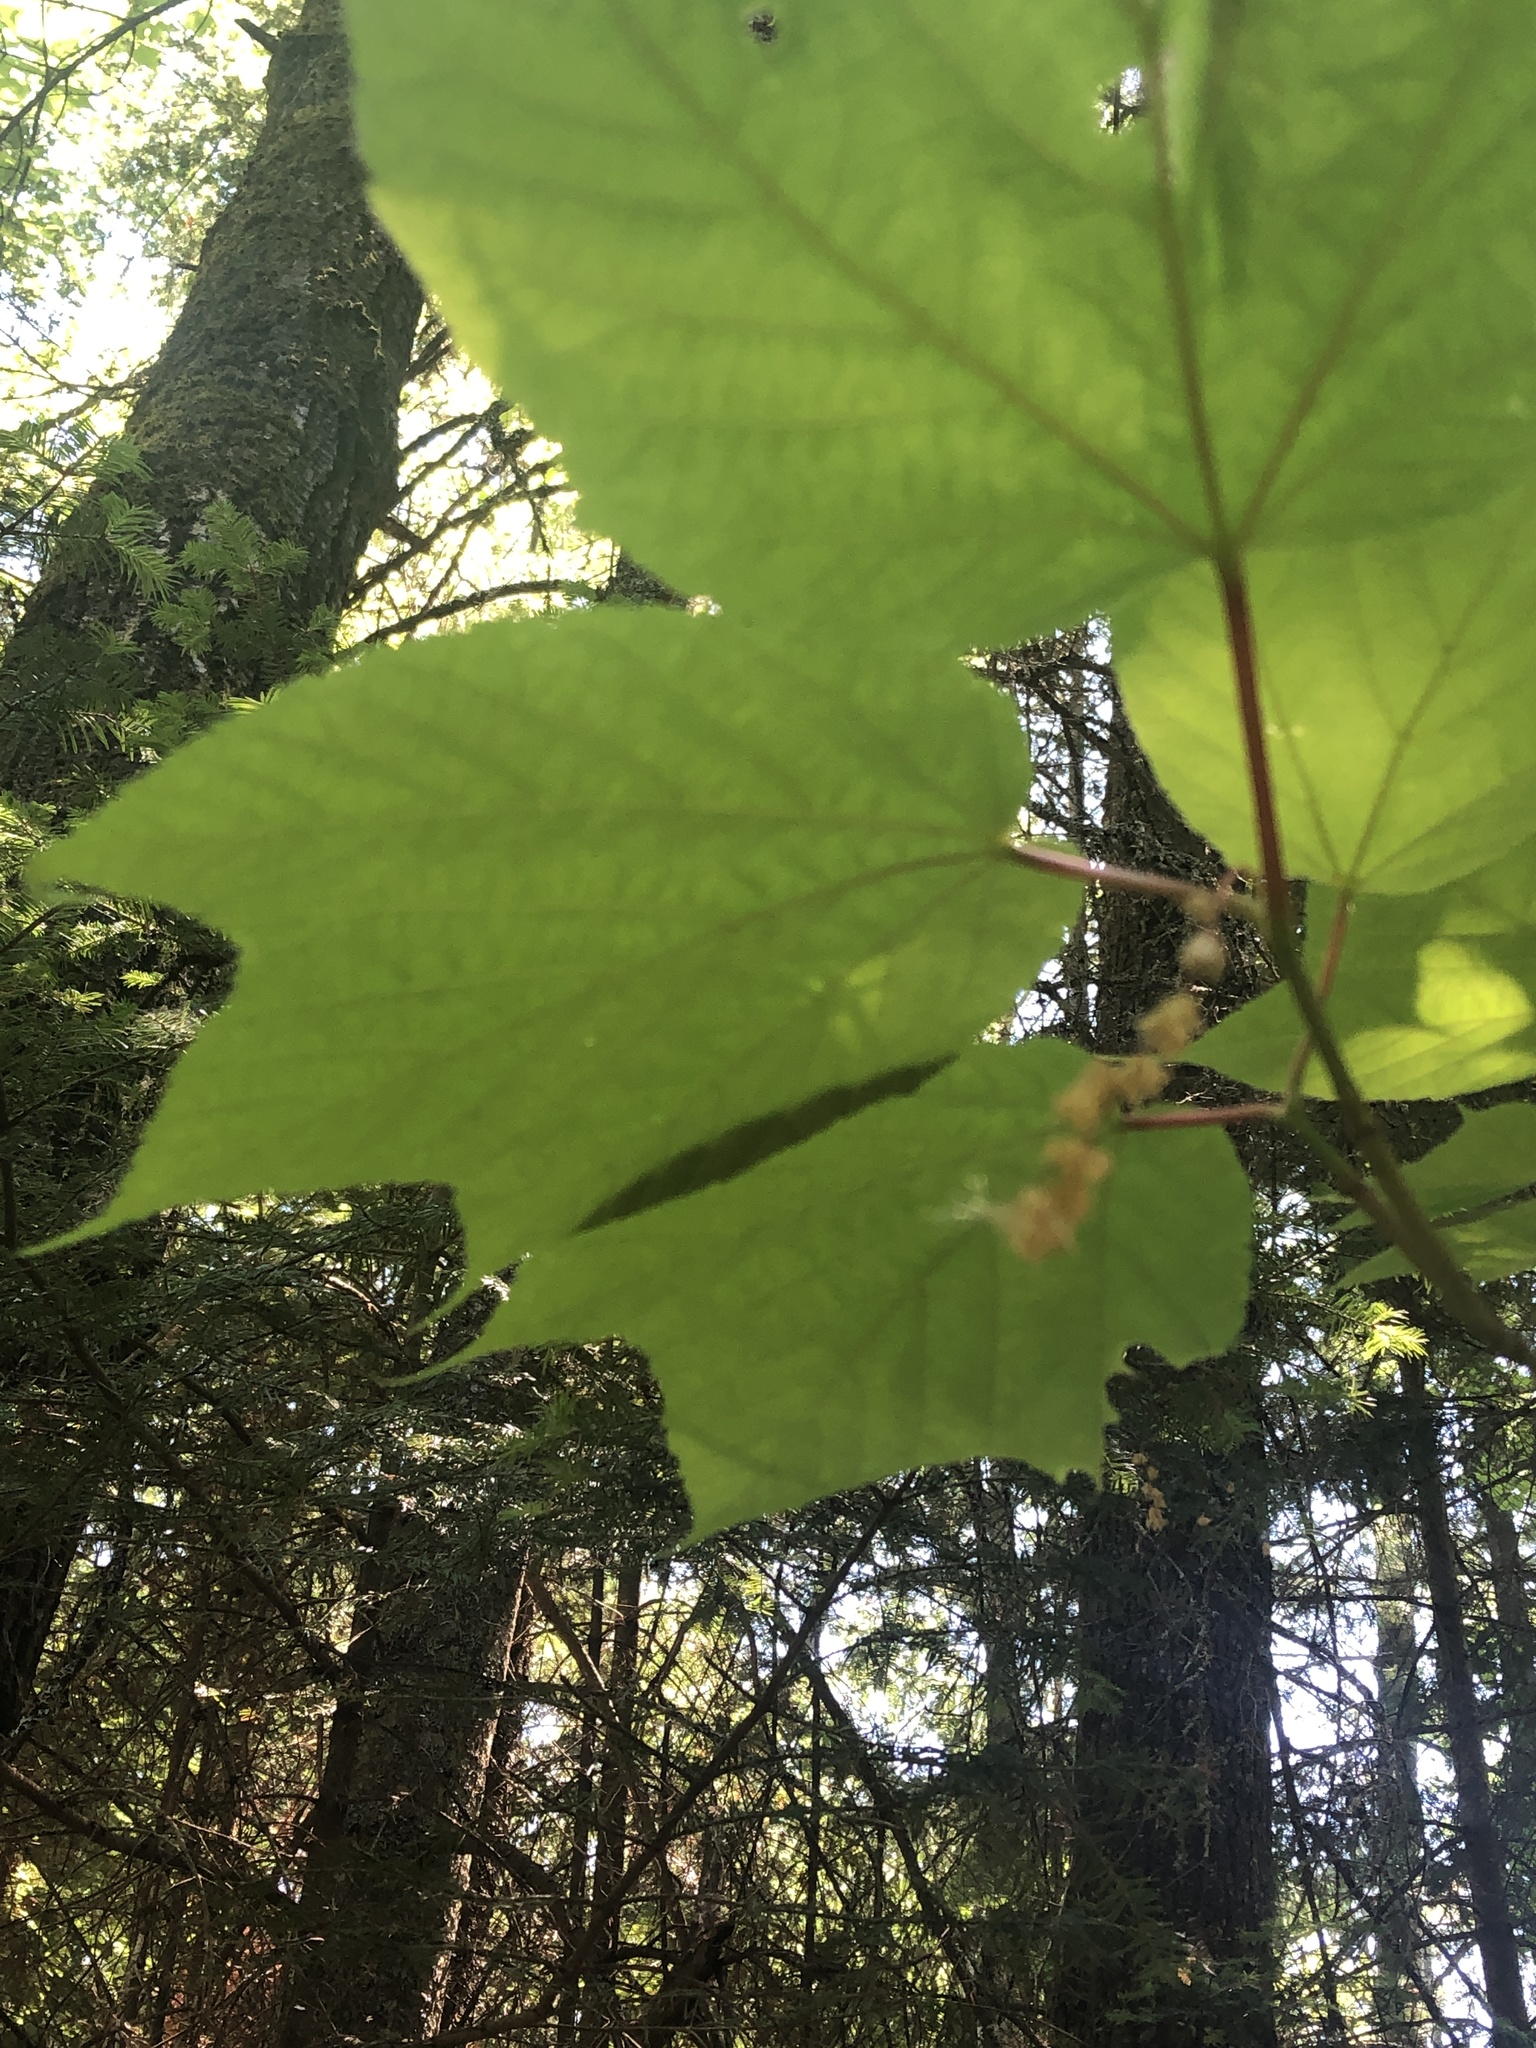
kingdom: Plantae
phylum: Tracheophyta
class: Magnoliopsida
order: Sapindales
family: Sapindaceae
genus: Acer
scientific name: Acer pensylvanicum
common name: Moosewood
